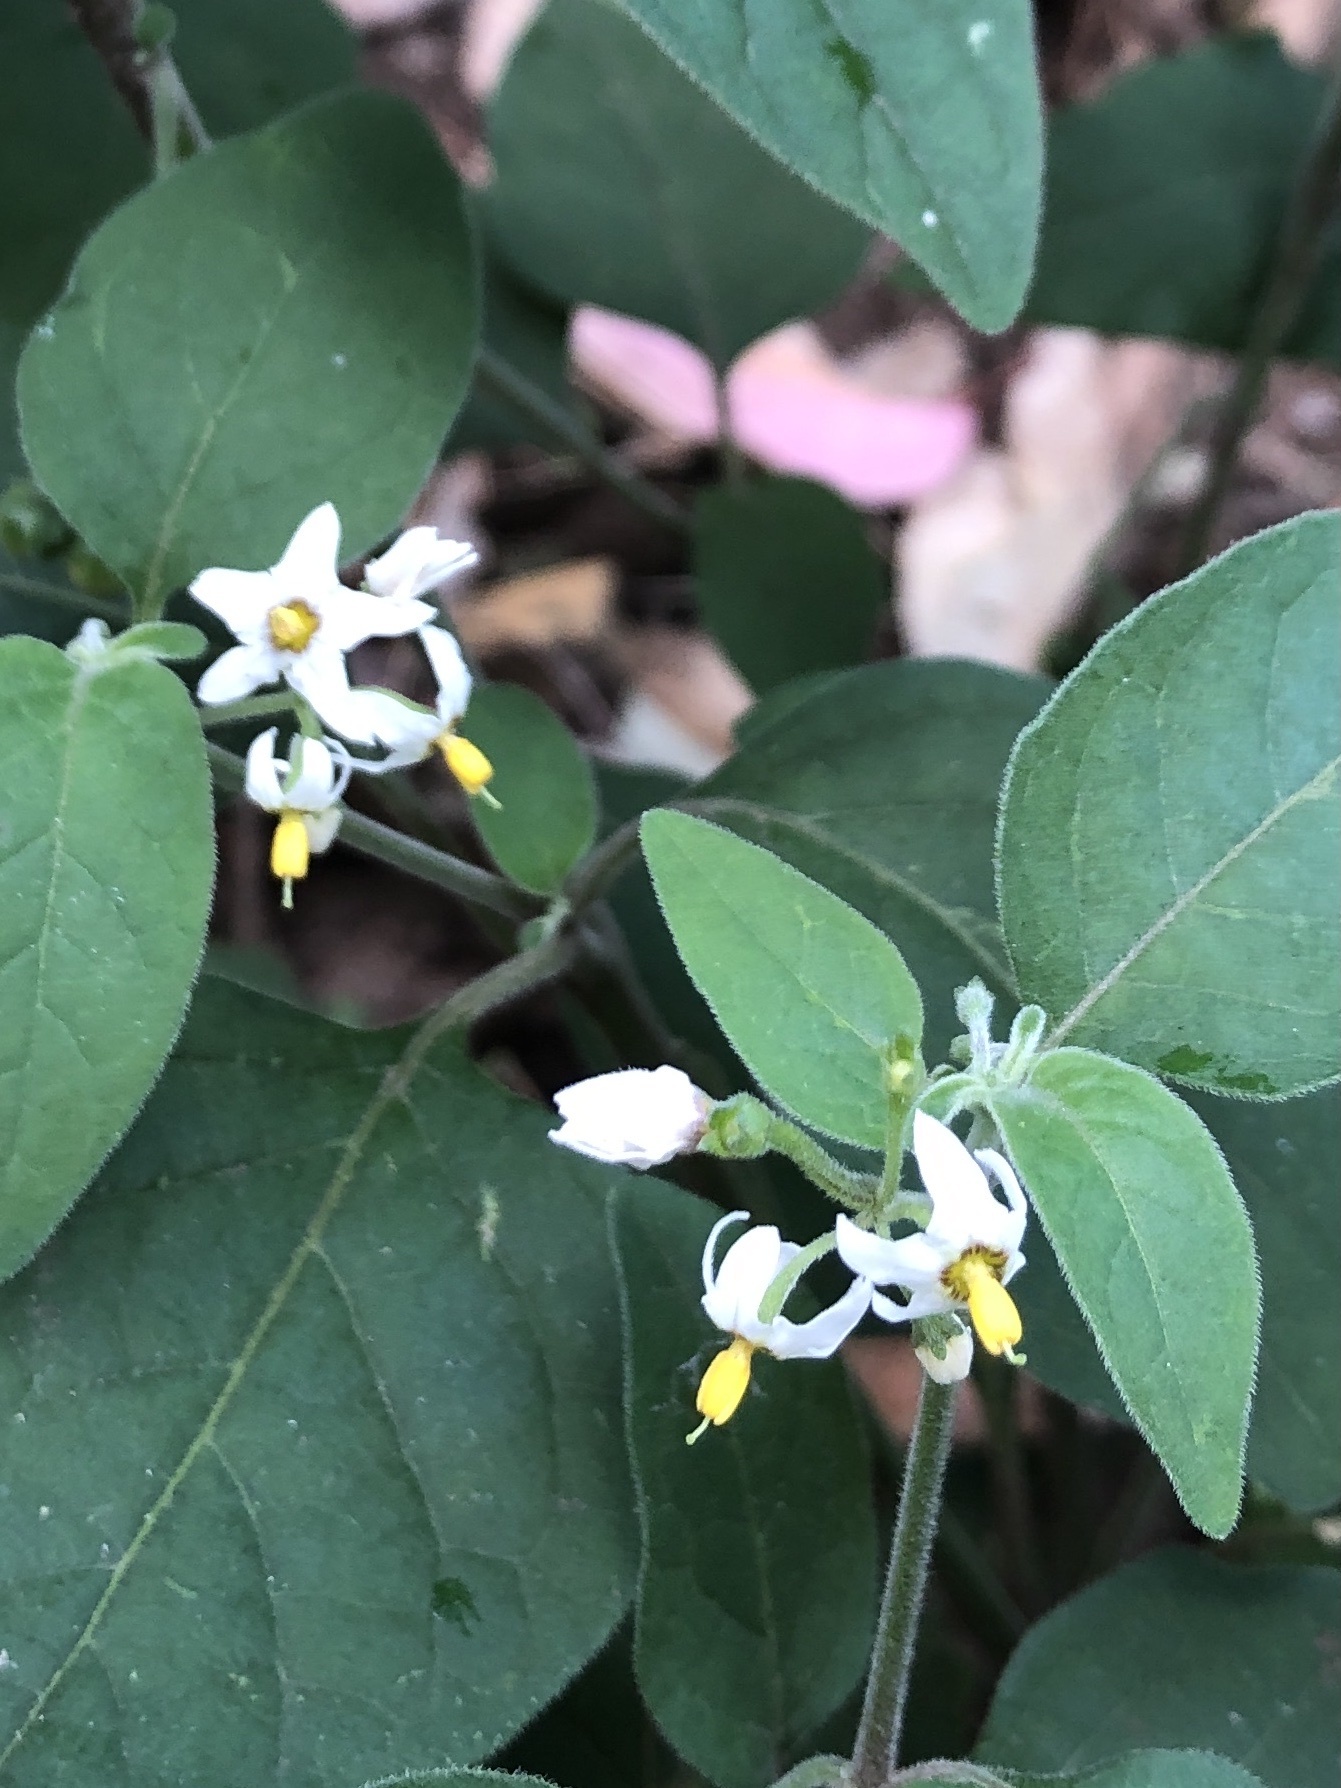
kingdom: Plantae
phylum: Tracheophyta
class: Magnoliopsida
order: Solanales
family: Solanaceae
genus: Solanum
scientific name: Solanum chenopodioides
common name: Tall nightshade
